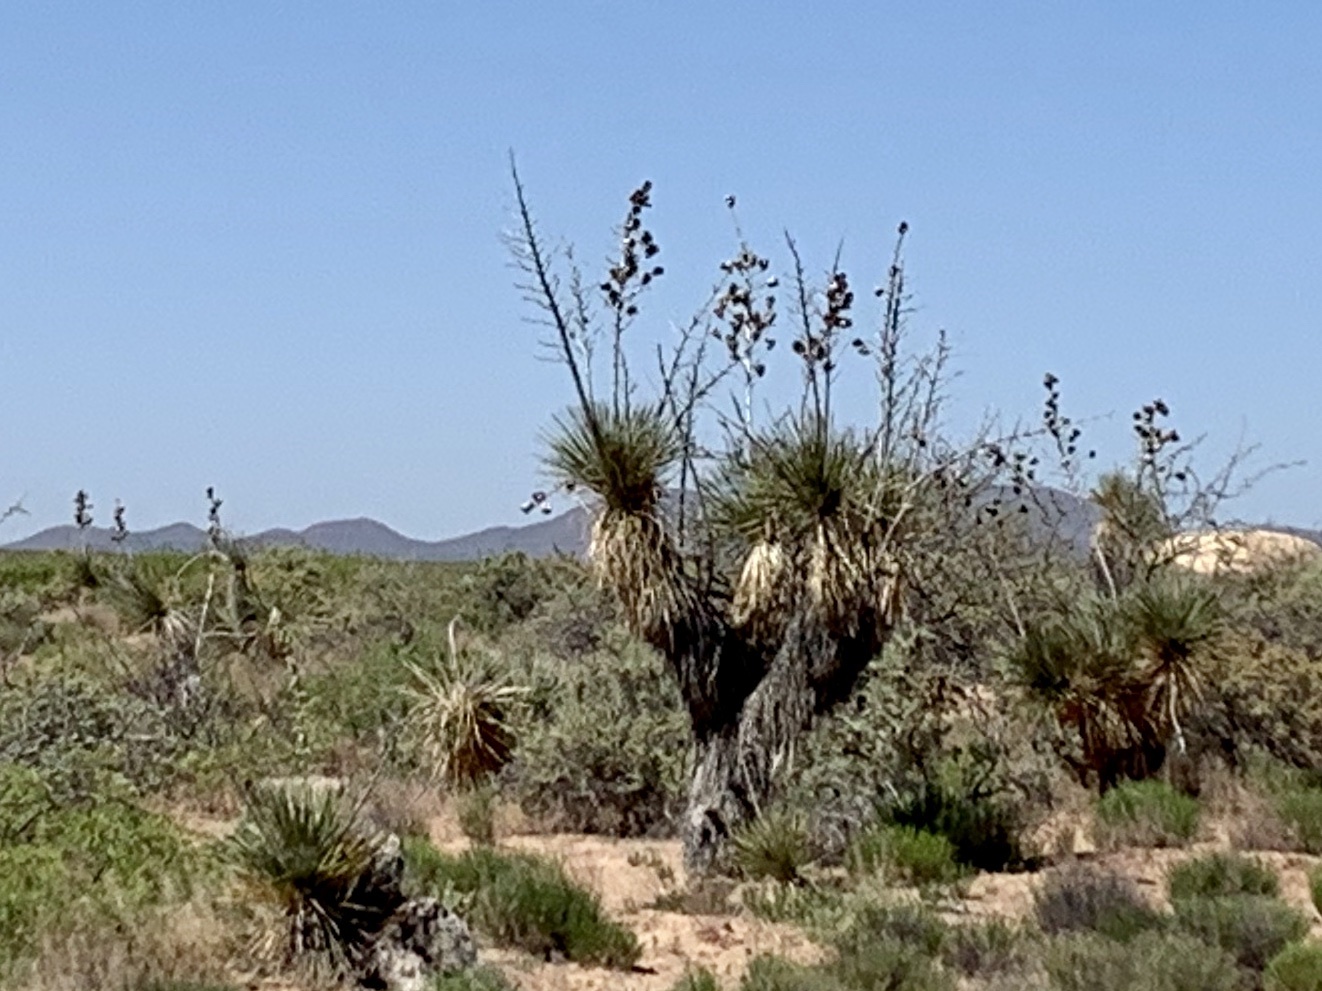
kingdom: Plantae
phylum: Tracheophyta
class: Liliopsida
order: Asparagales
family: Asparagaceae
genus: Yucca
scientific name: Yucca elata
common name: Palmella
